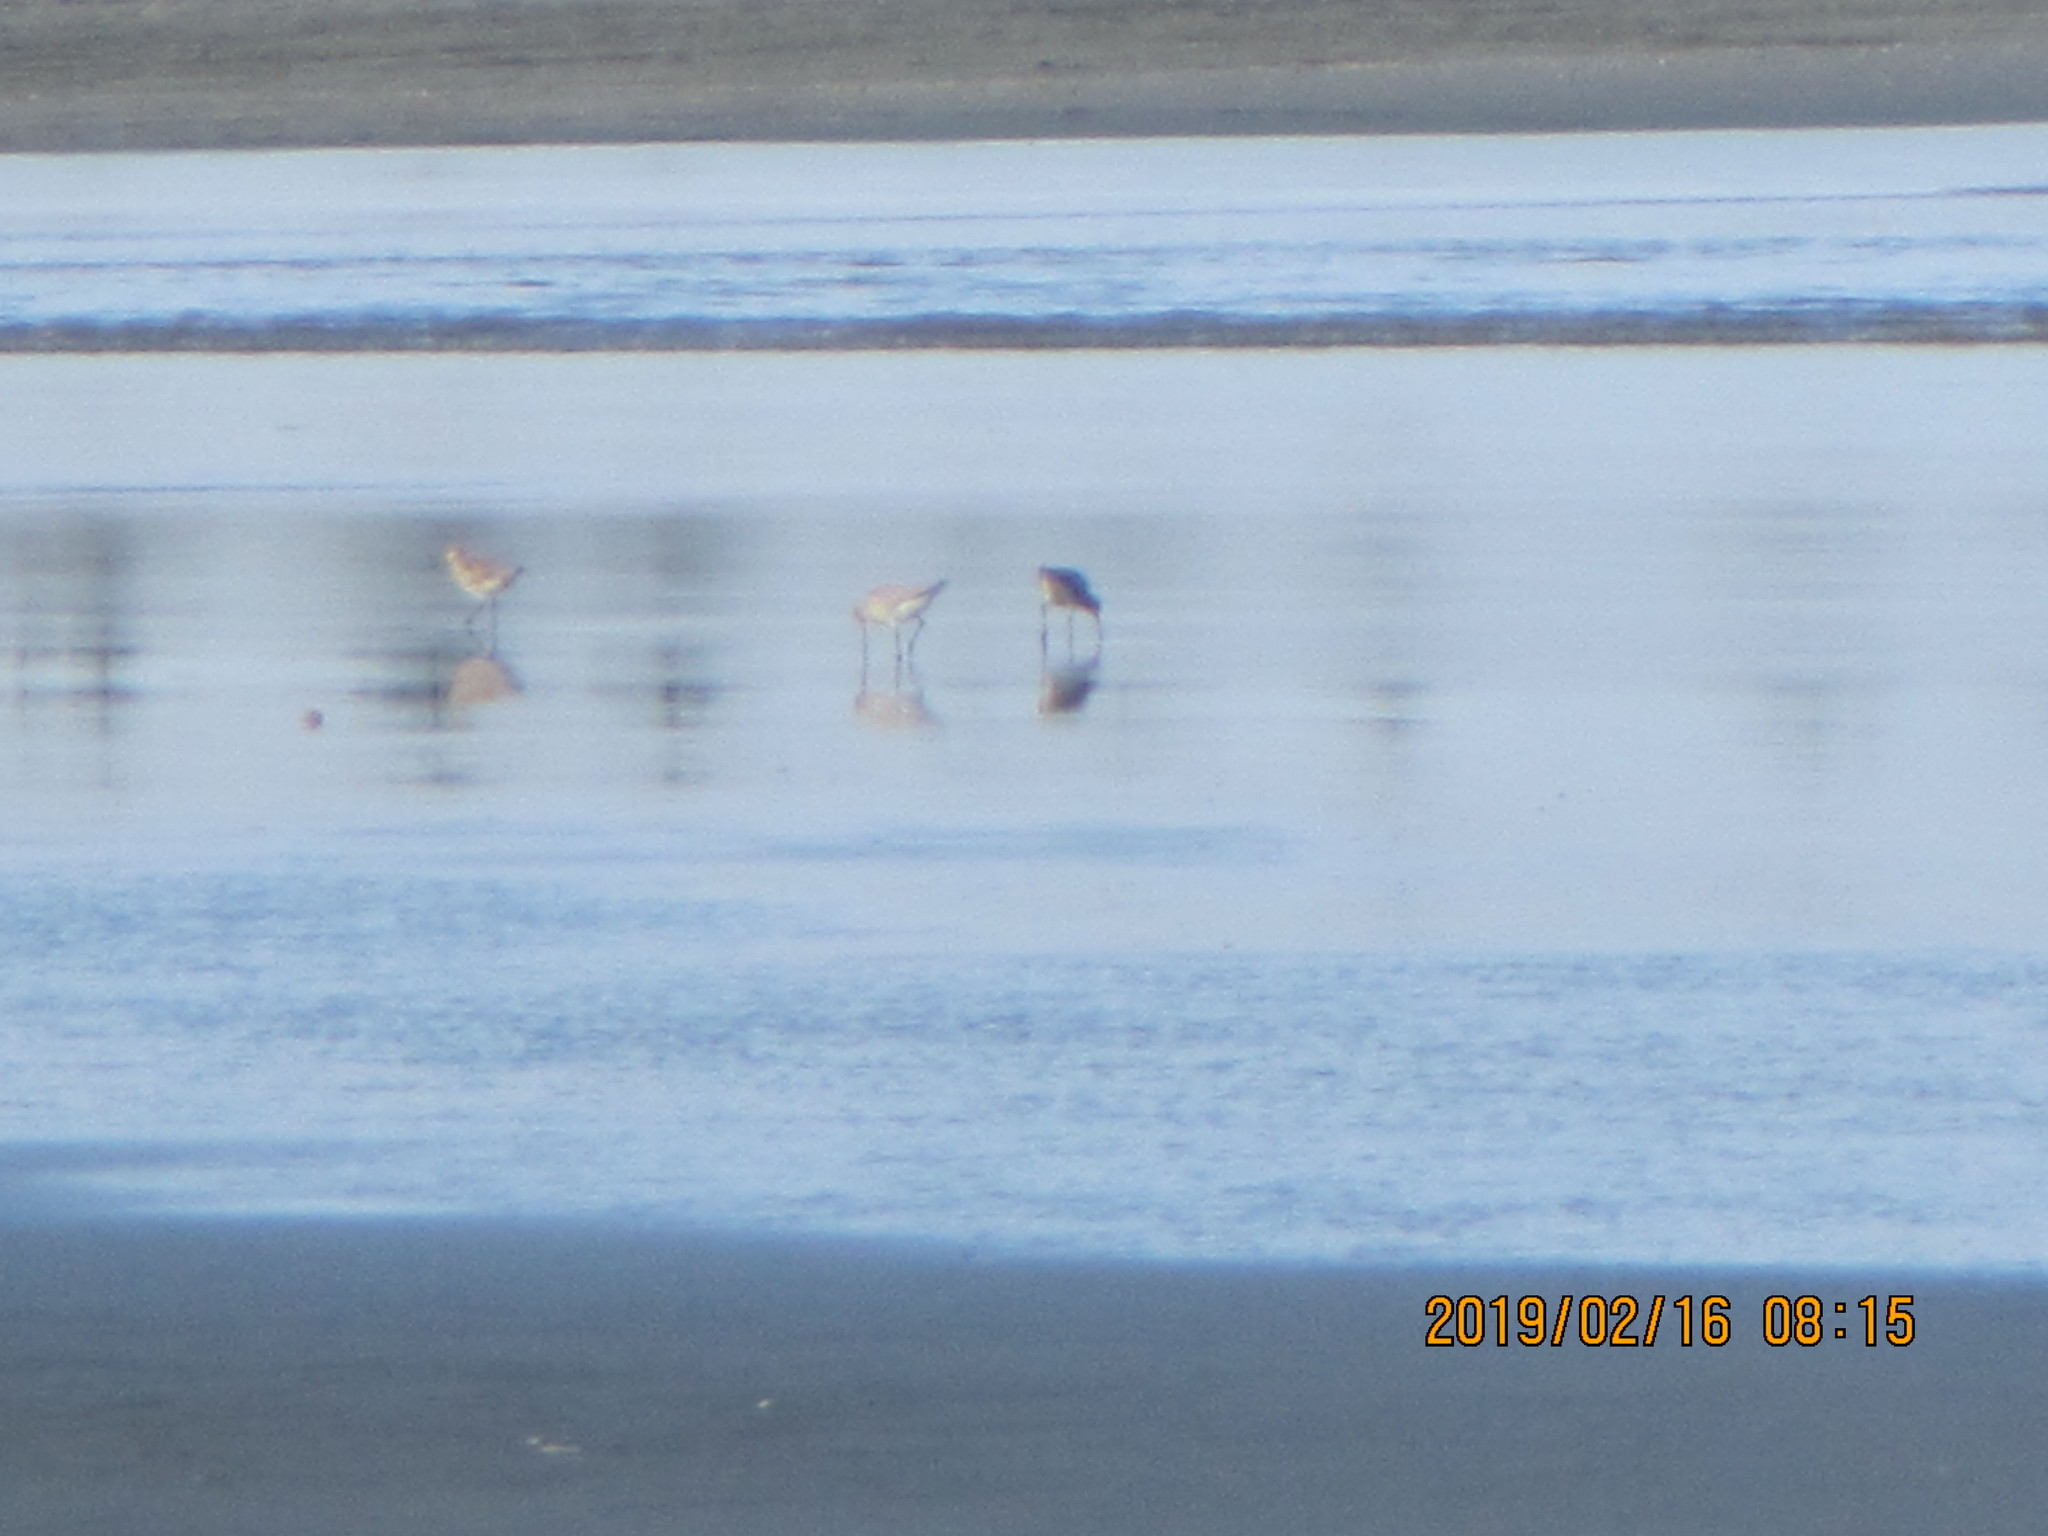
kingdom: Animalia
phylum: Chordata
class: Aves
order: Charadriiformes
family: Scolopacidae
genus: Limosa
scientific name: Limosa lapponica
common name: Bar-tailed godwit
